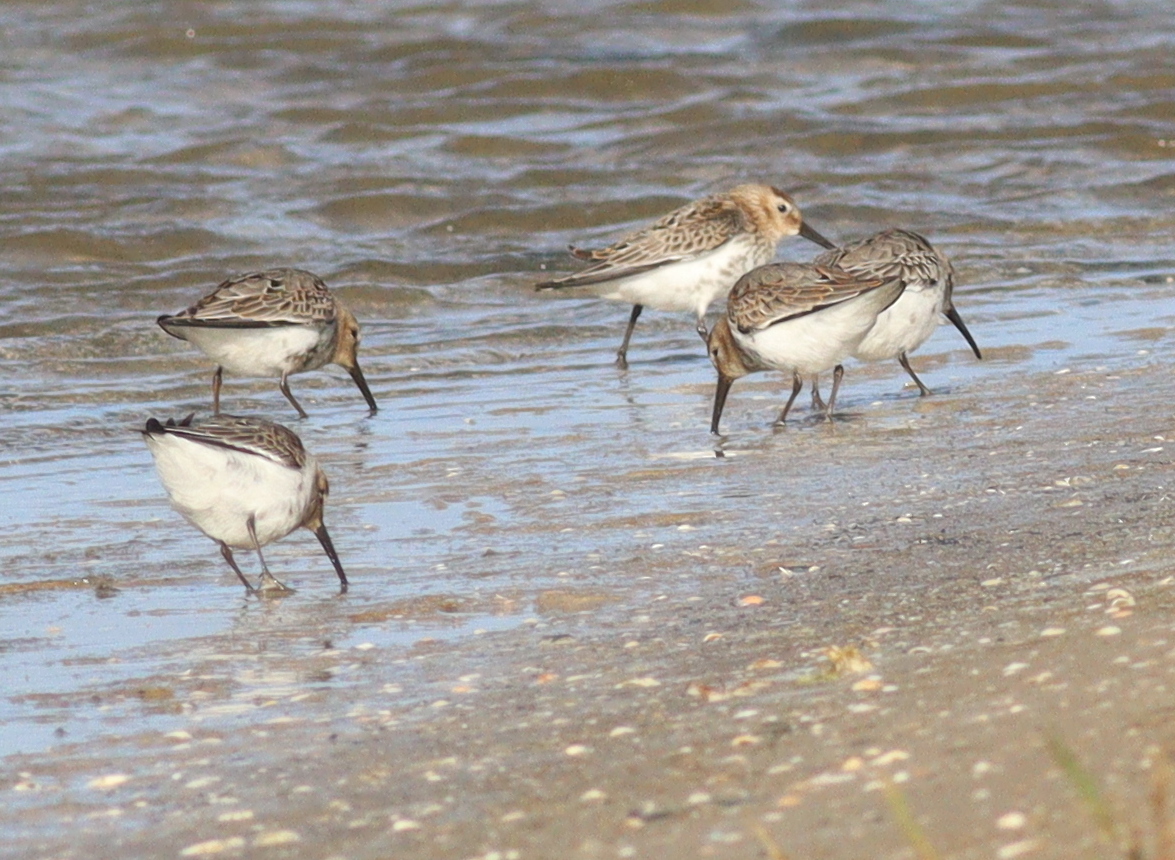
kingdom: Animalia
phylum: Chordata
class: Aves
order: Charadriiformes
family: Scolopacidae
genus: Calidris
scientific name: Calidris alpina
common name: Dunlin
